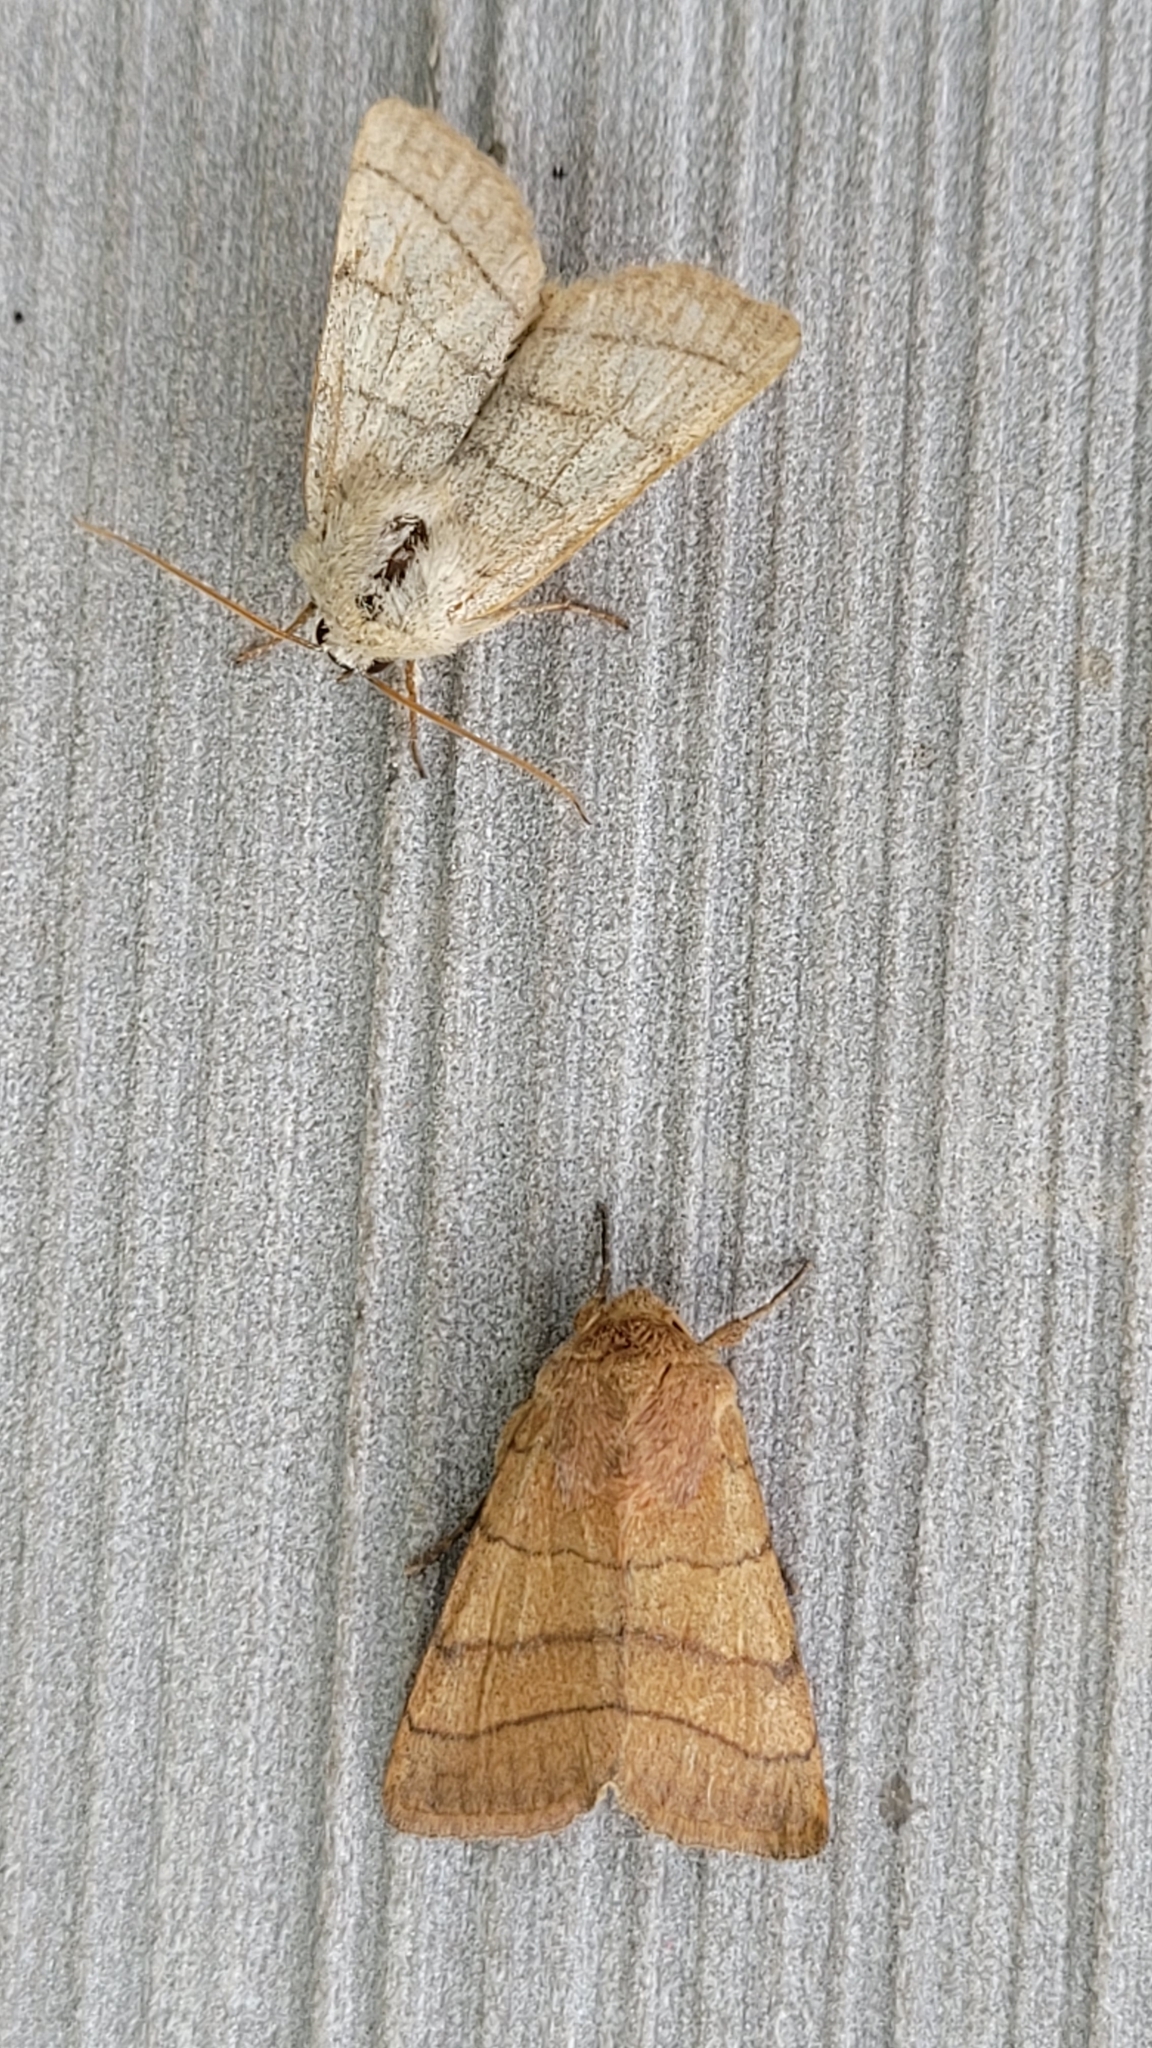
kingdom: Animalia
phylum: Arthropoda
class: Insecta
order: Lepidoptera
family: Noctuidae
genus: Charanyca
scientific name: Charanyca trigrammica
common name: Treble lines
